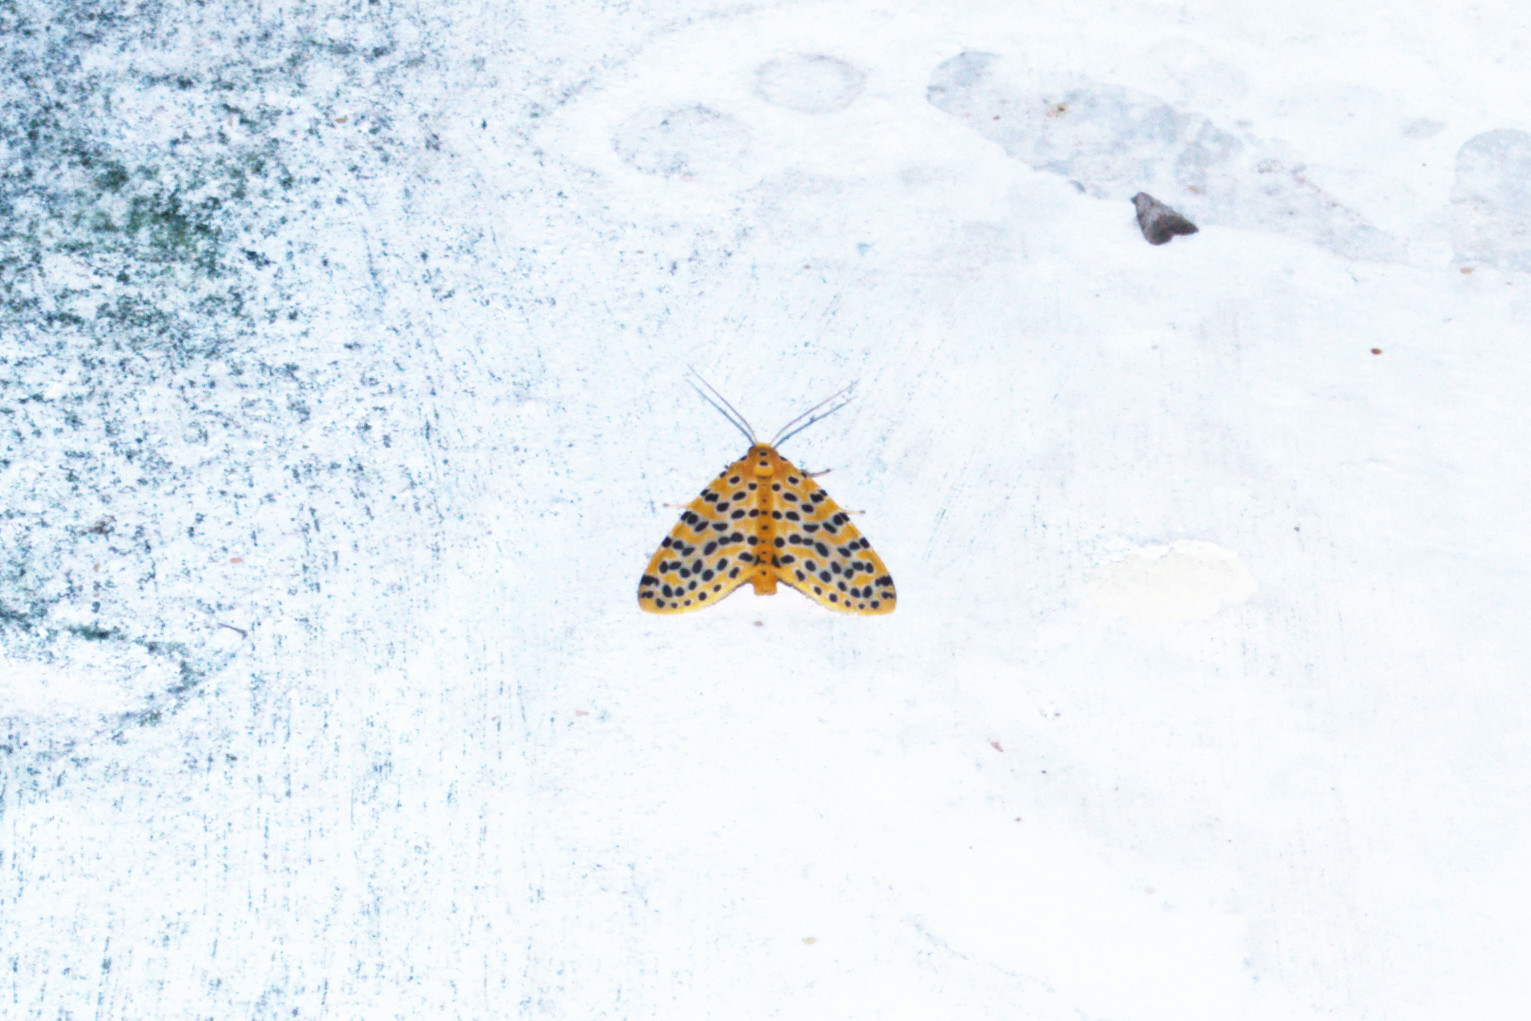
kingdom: Animalia
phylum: Arthropoda
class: Insecta
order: Lepidoptera
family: Erebidae
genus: Argina
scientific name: Argina astrea
